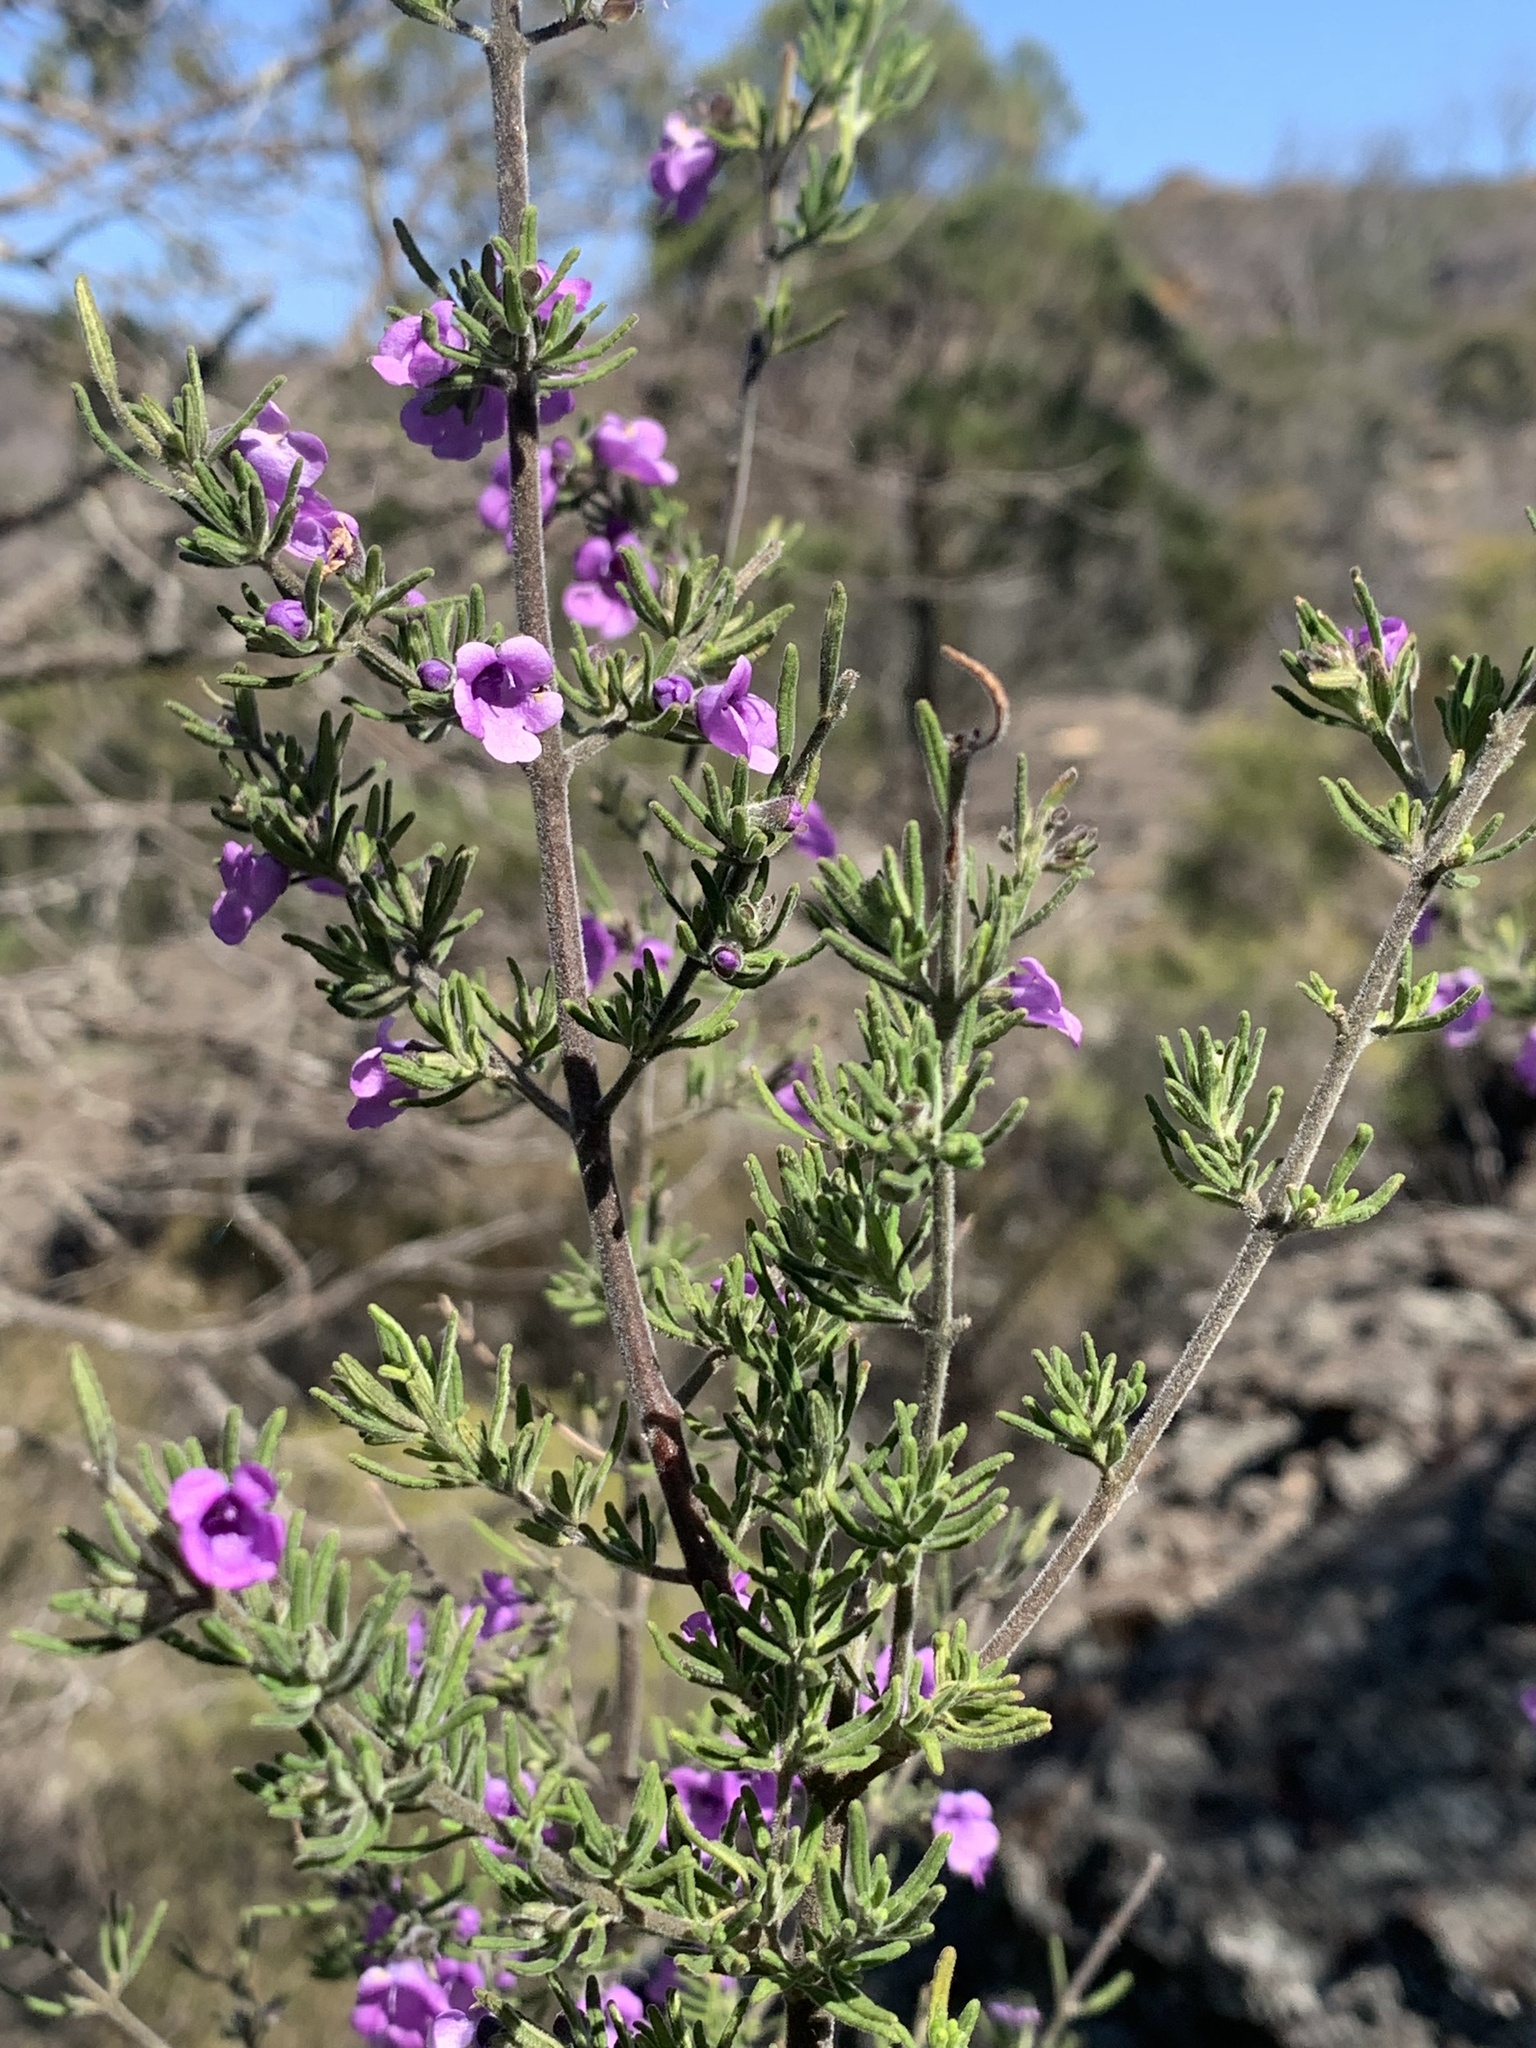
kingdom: Plantae
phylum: Tracheophyta
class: Magnoliopsida
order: Lamiales
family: Lamiaceae
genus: Prostanthera
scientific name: Prostanthera stenophylla
